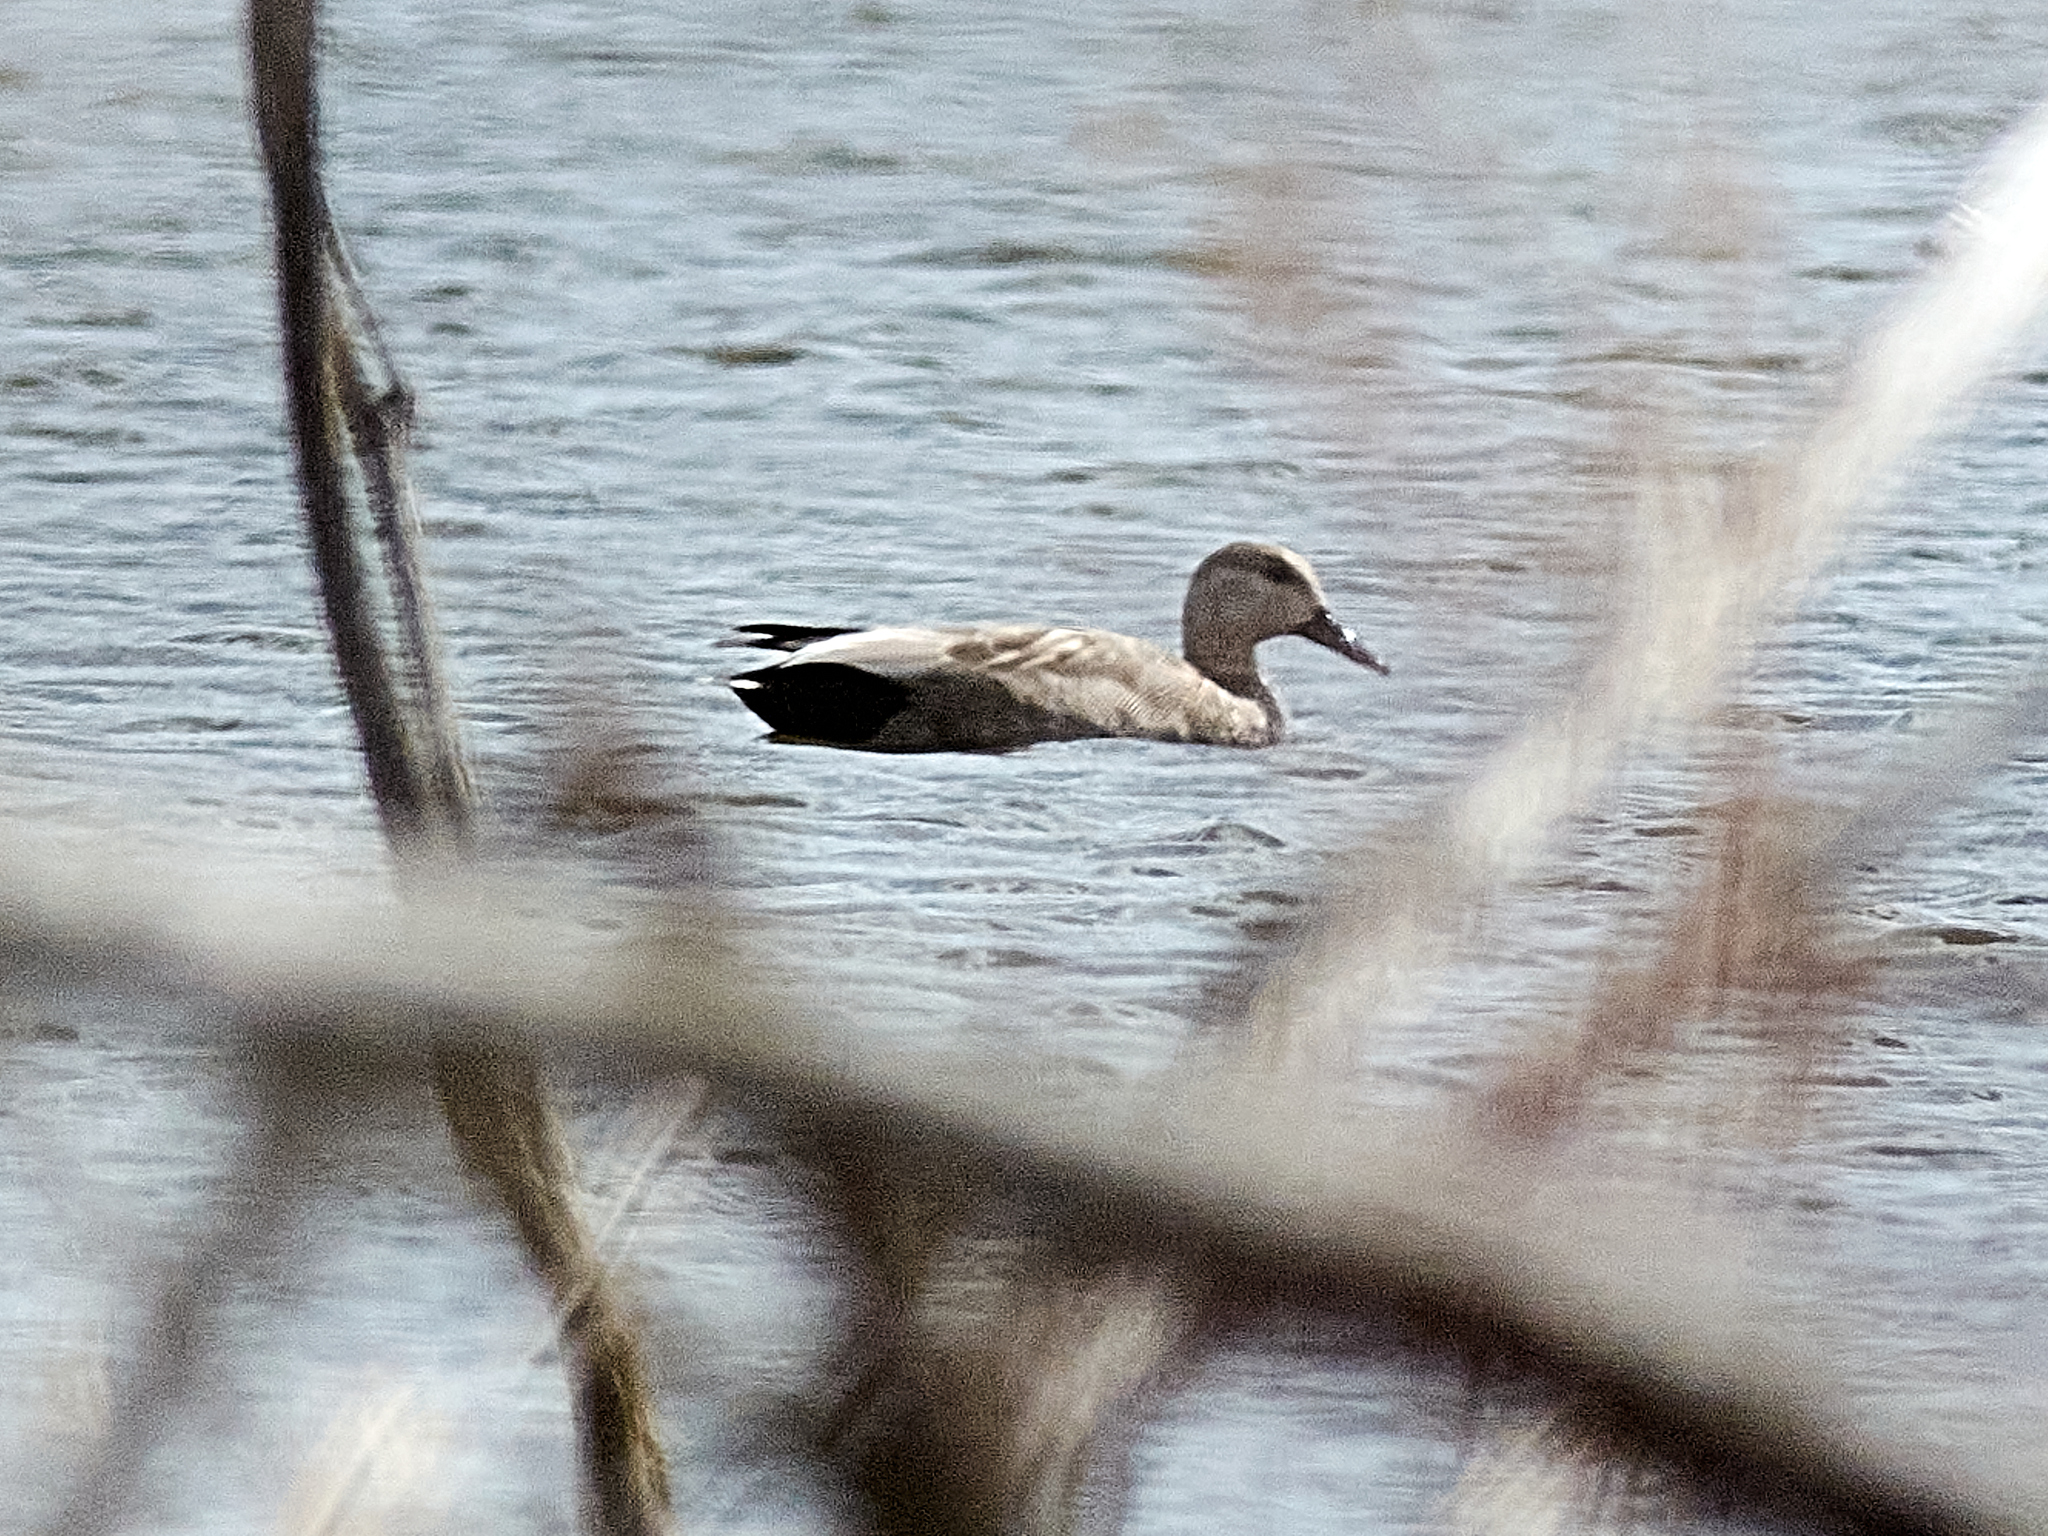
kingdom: Animalia
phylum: Chordata
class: Aves
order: Anseriformes
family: Anatidae
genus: Mareca
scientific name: Mareca strepera
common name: Gadwall
